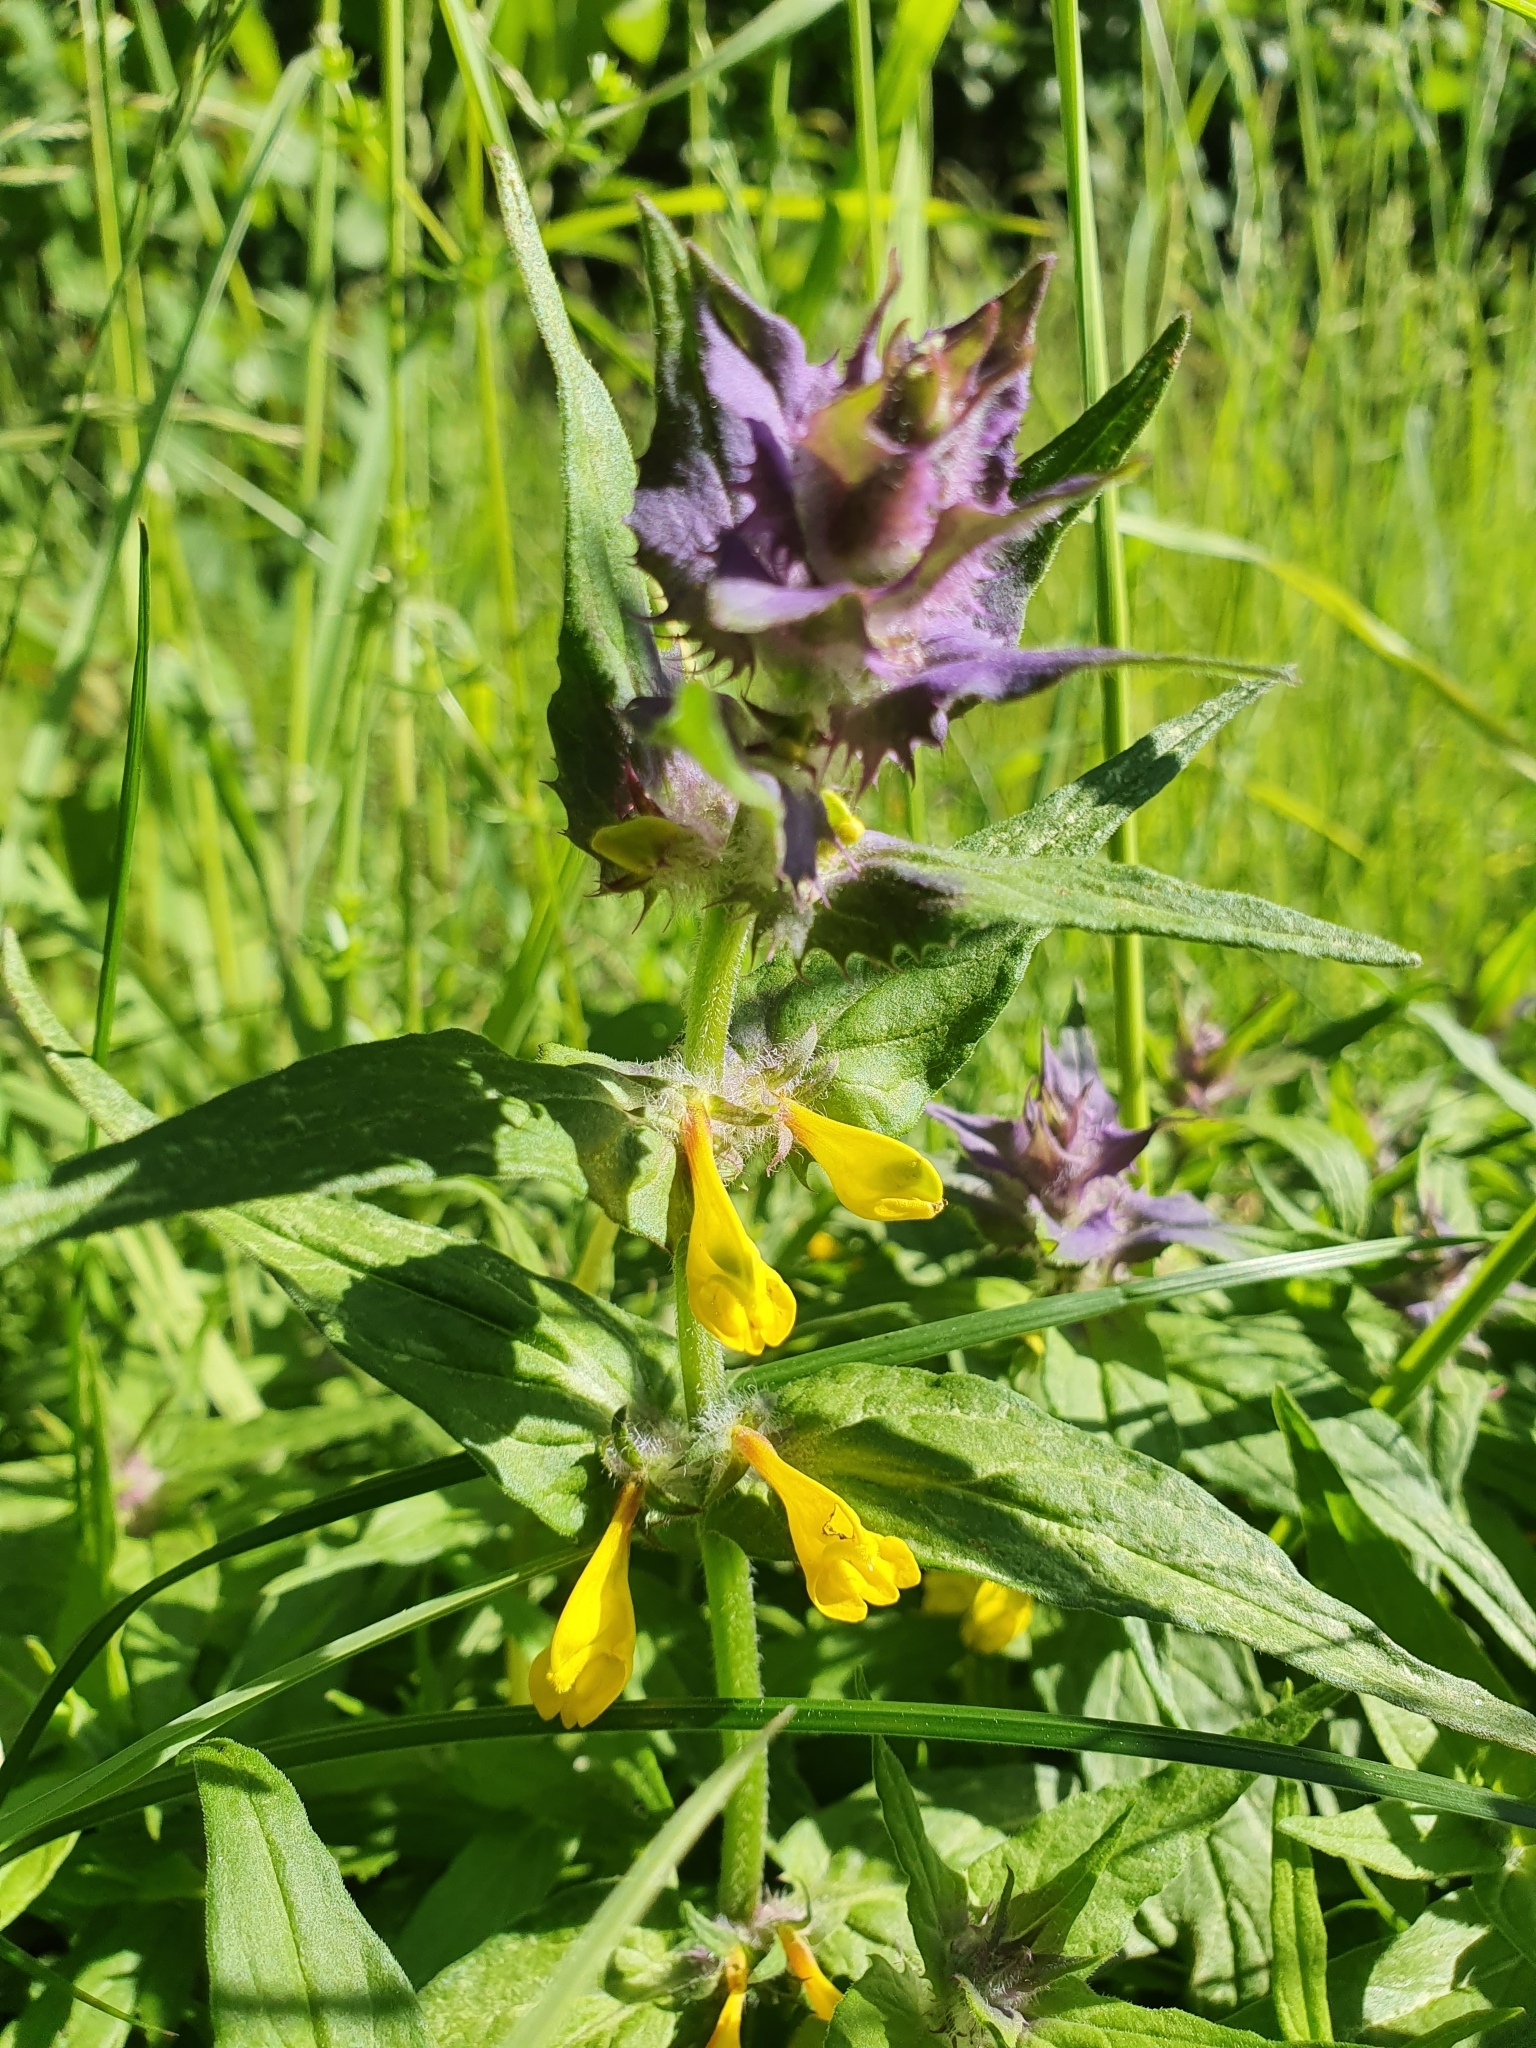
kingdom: Plantae
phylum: Tracheophyta
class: Magnoliopsida
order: Lamiales
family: Orobanchaceae
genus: Melampyrum
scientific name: Melampyrum nemorosum
